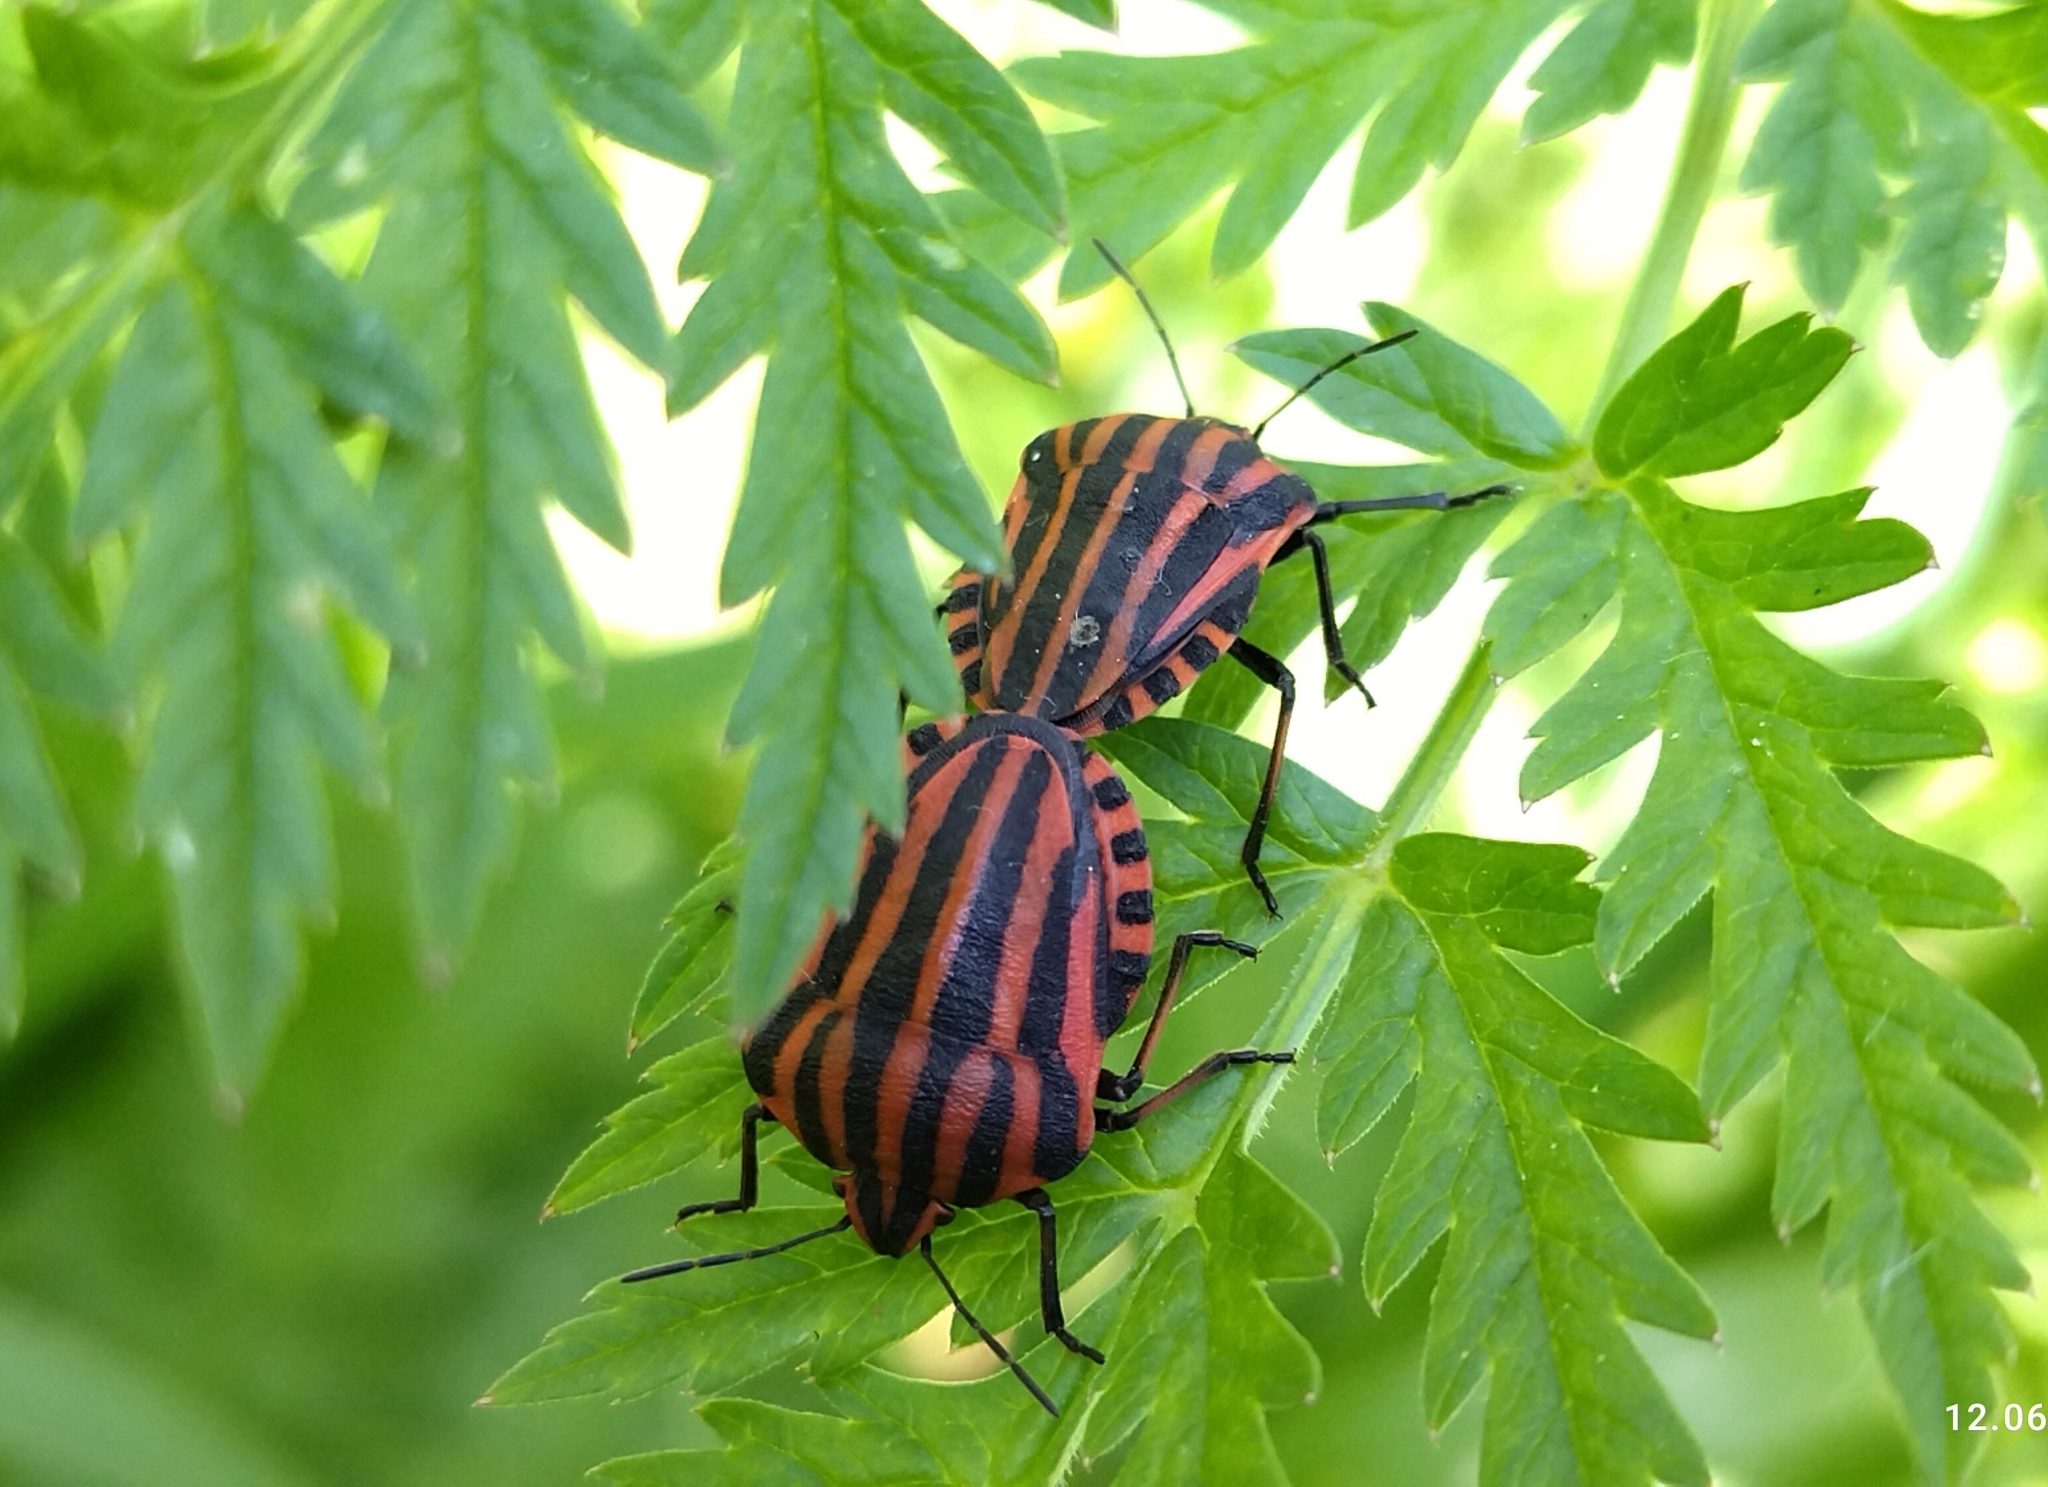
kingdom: Animalia
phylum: Arthropoda
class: Insecta
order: Hemiptera
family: Pentatomidae
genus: Graphosoma
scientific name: Graphosoma italicum
